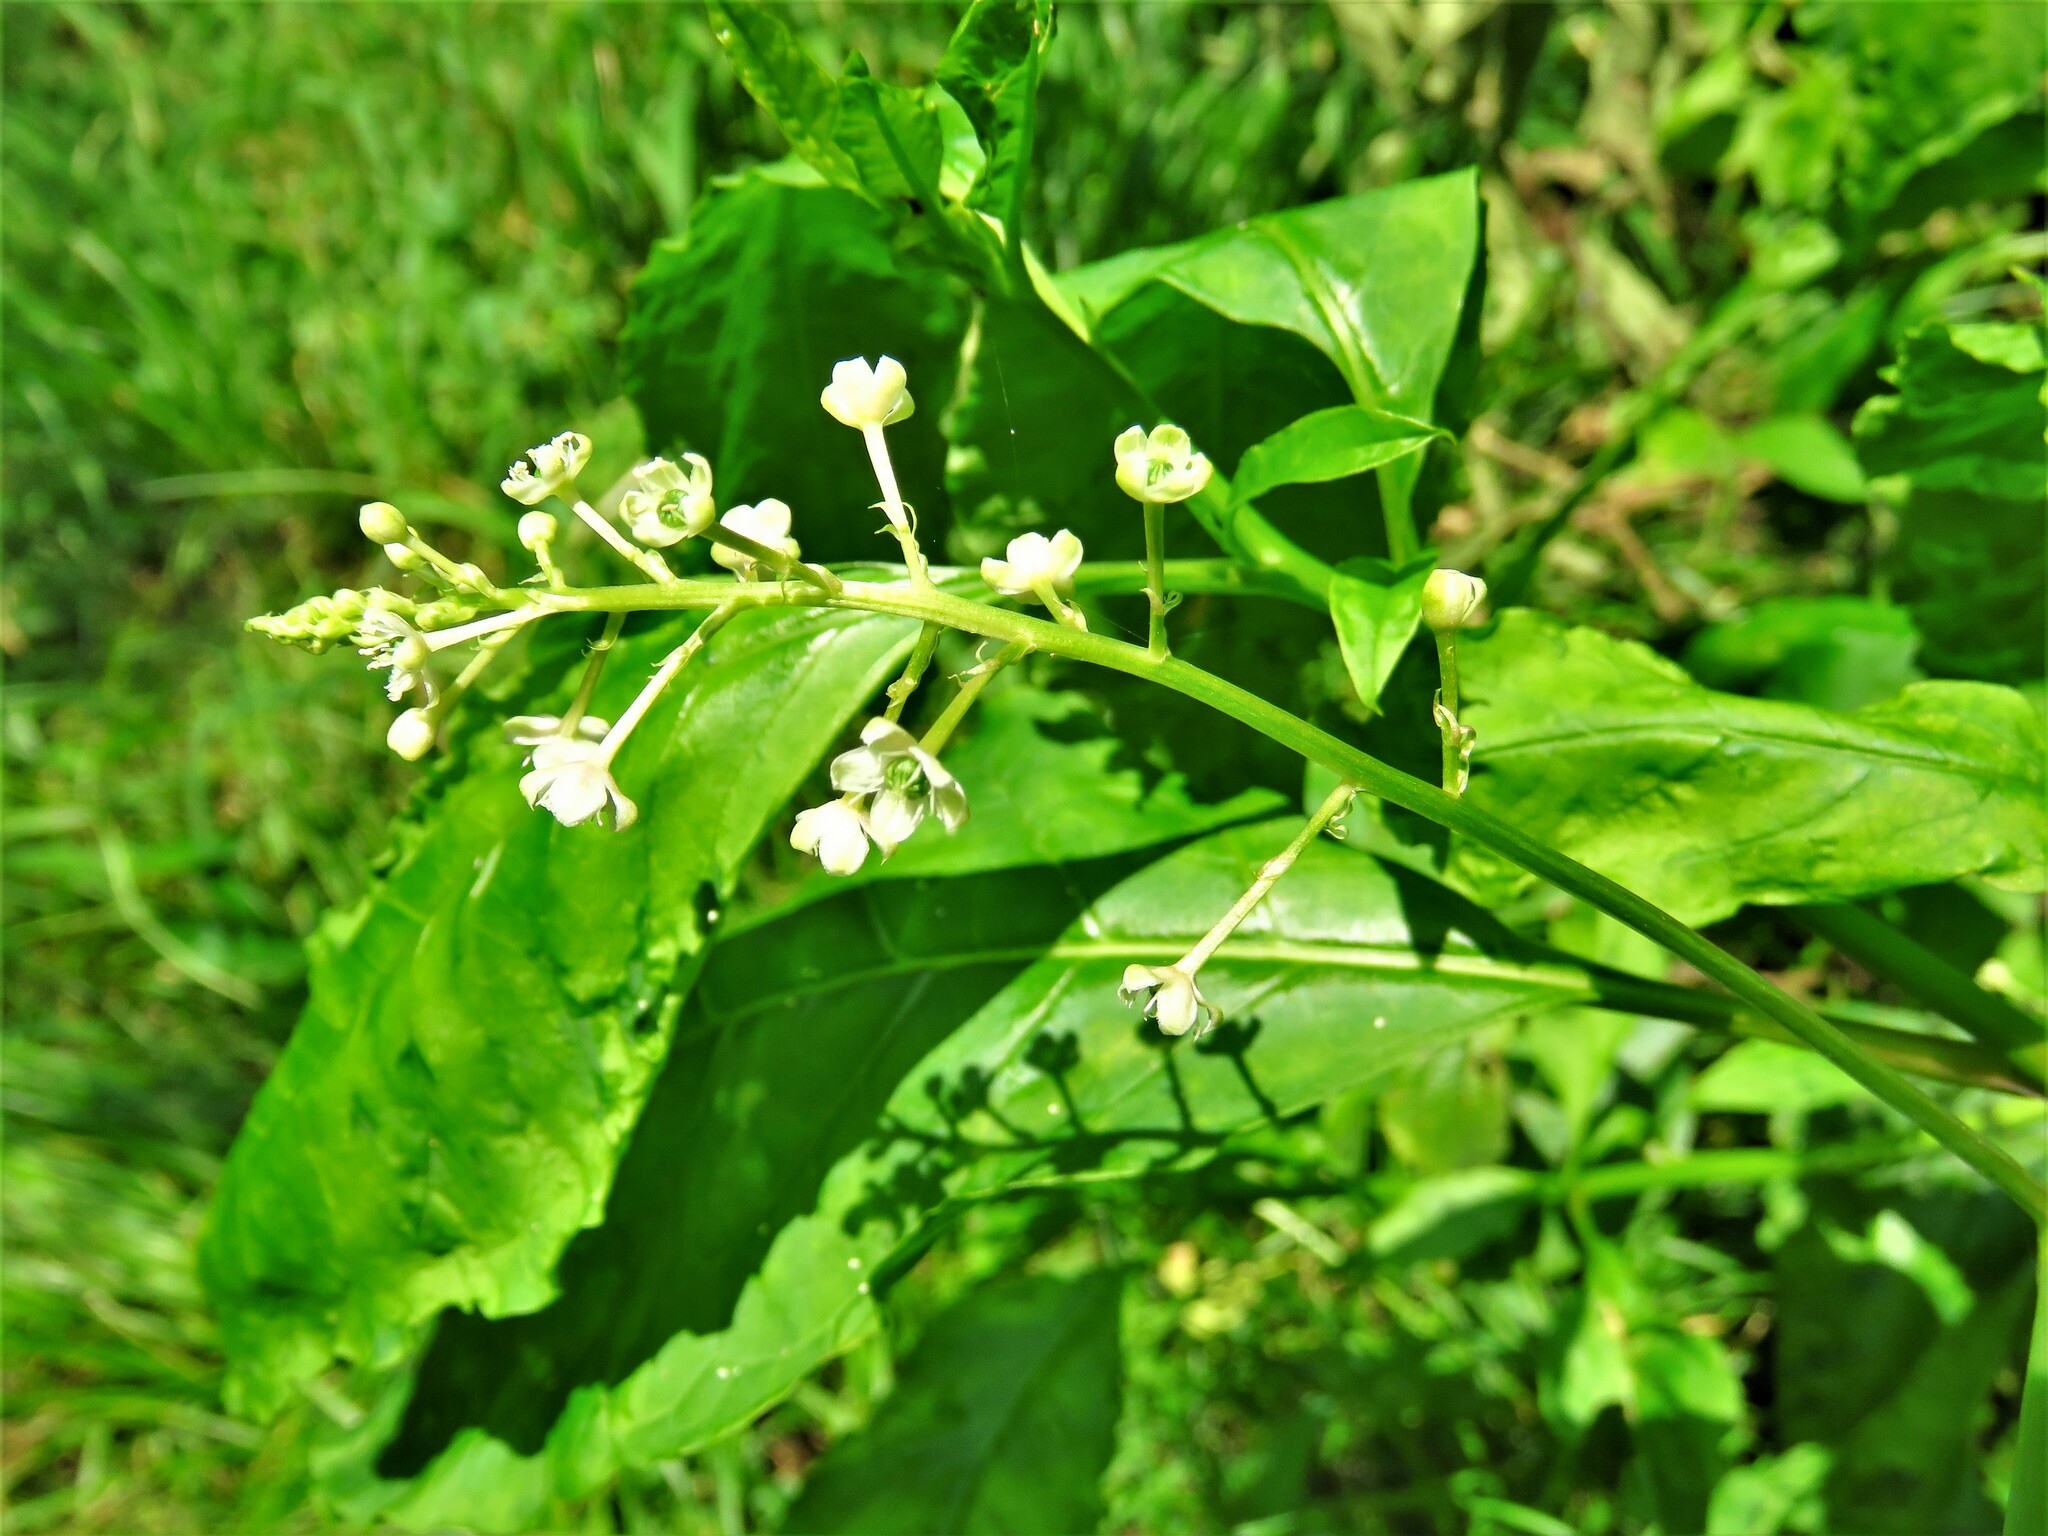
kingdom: Plantae
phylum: Tracheophyta
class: Magnoliopsida
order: Caryophyllales
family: Phytolaccaceae
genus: Phytolacca
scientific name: Phytolacca americana
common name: American pokeweed
